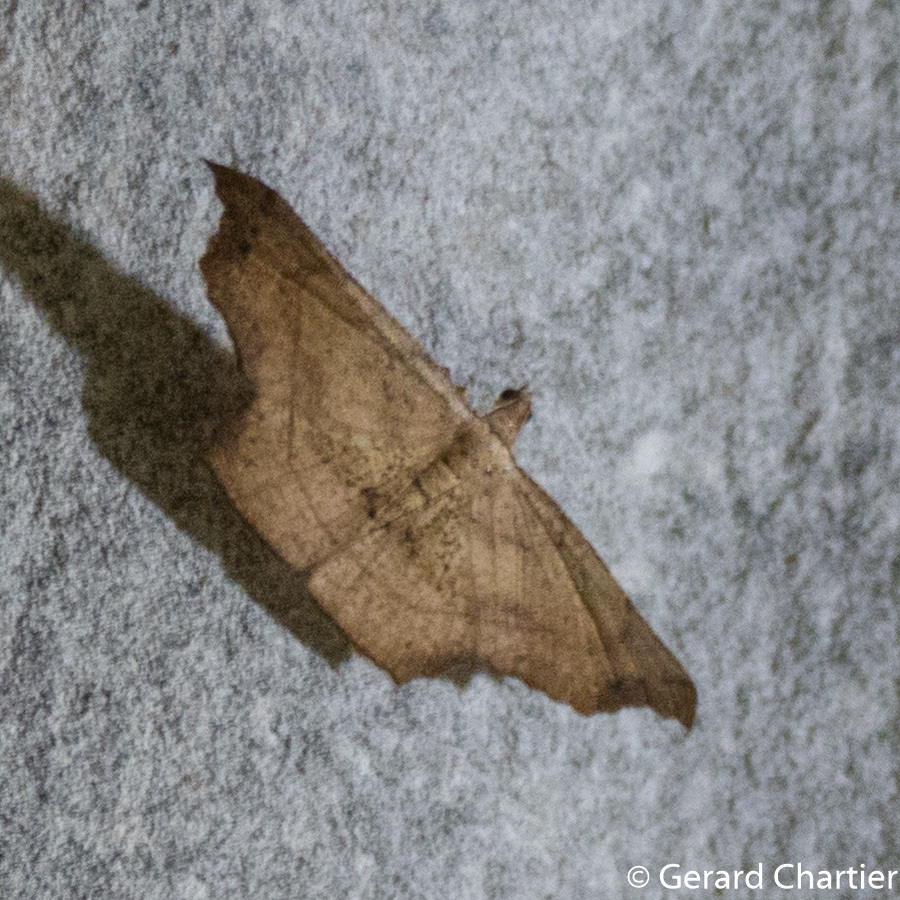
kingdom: Animalia
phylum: Arthropoda
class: Insecta
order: Lepidoptera
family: Geometridae
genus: Ozola
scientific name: Ozola turlini
